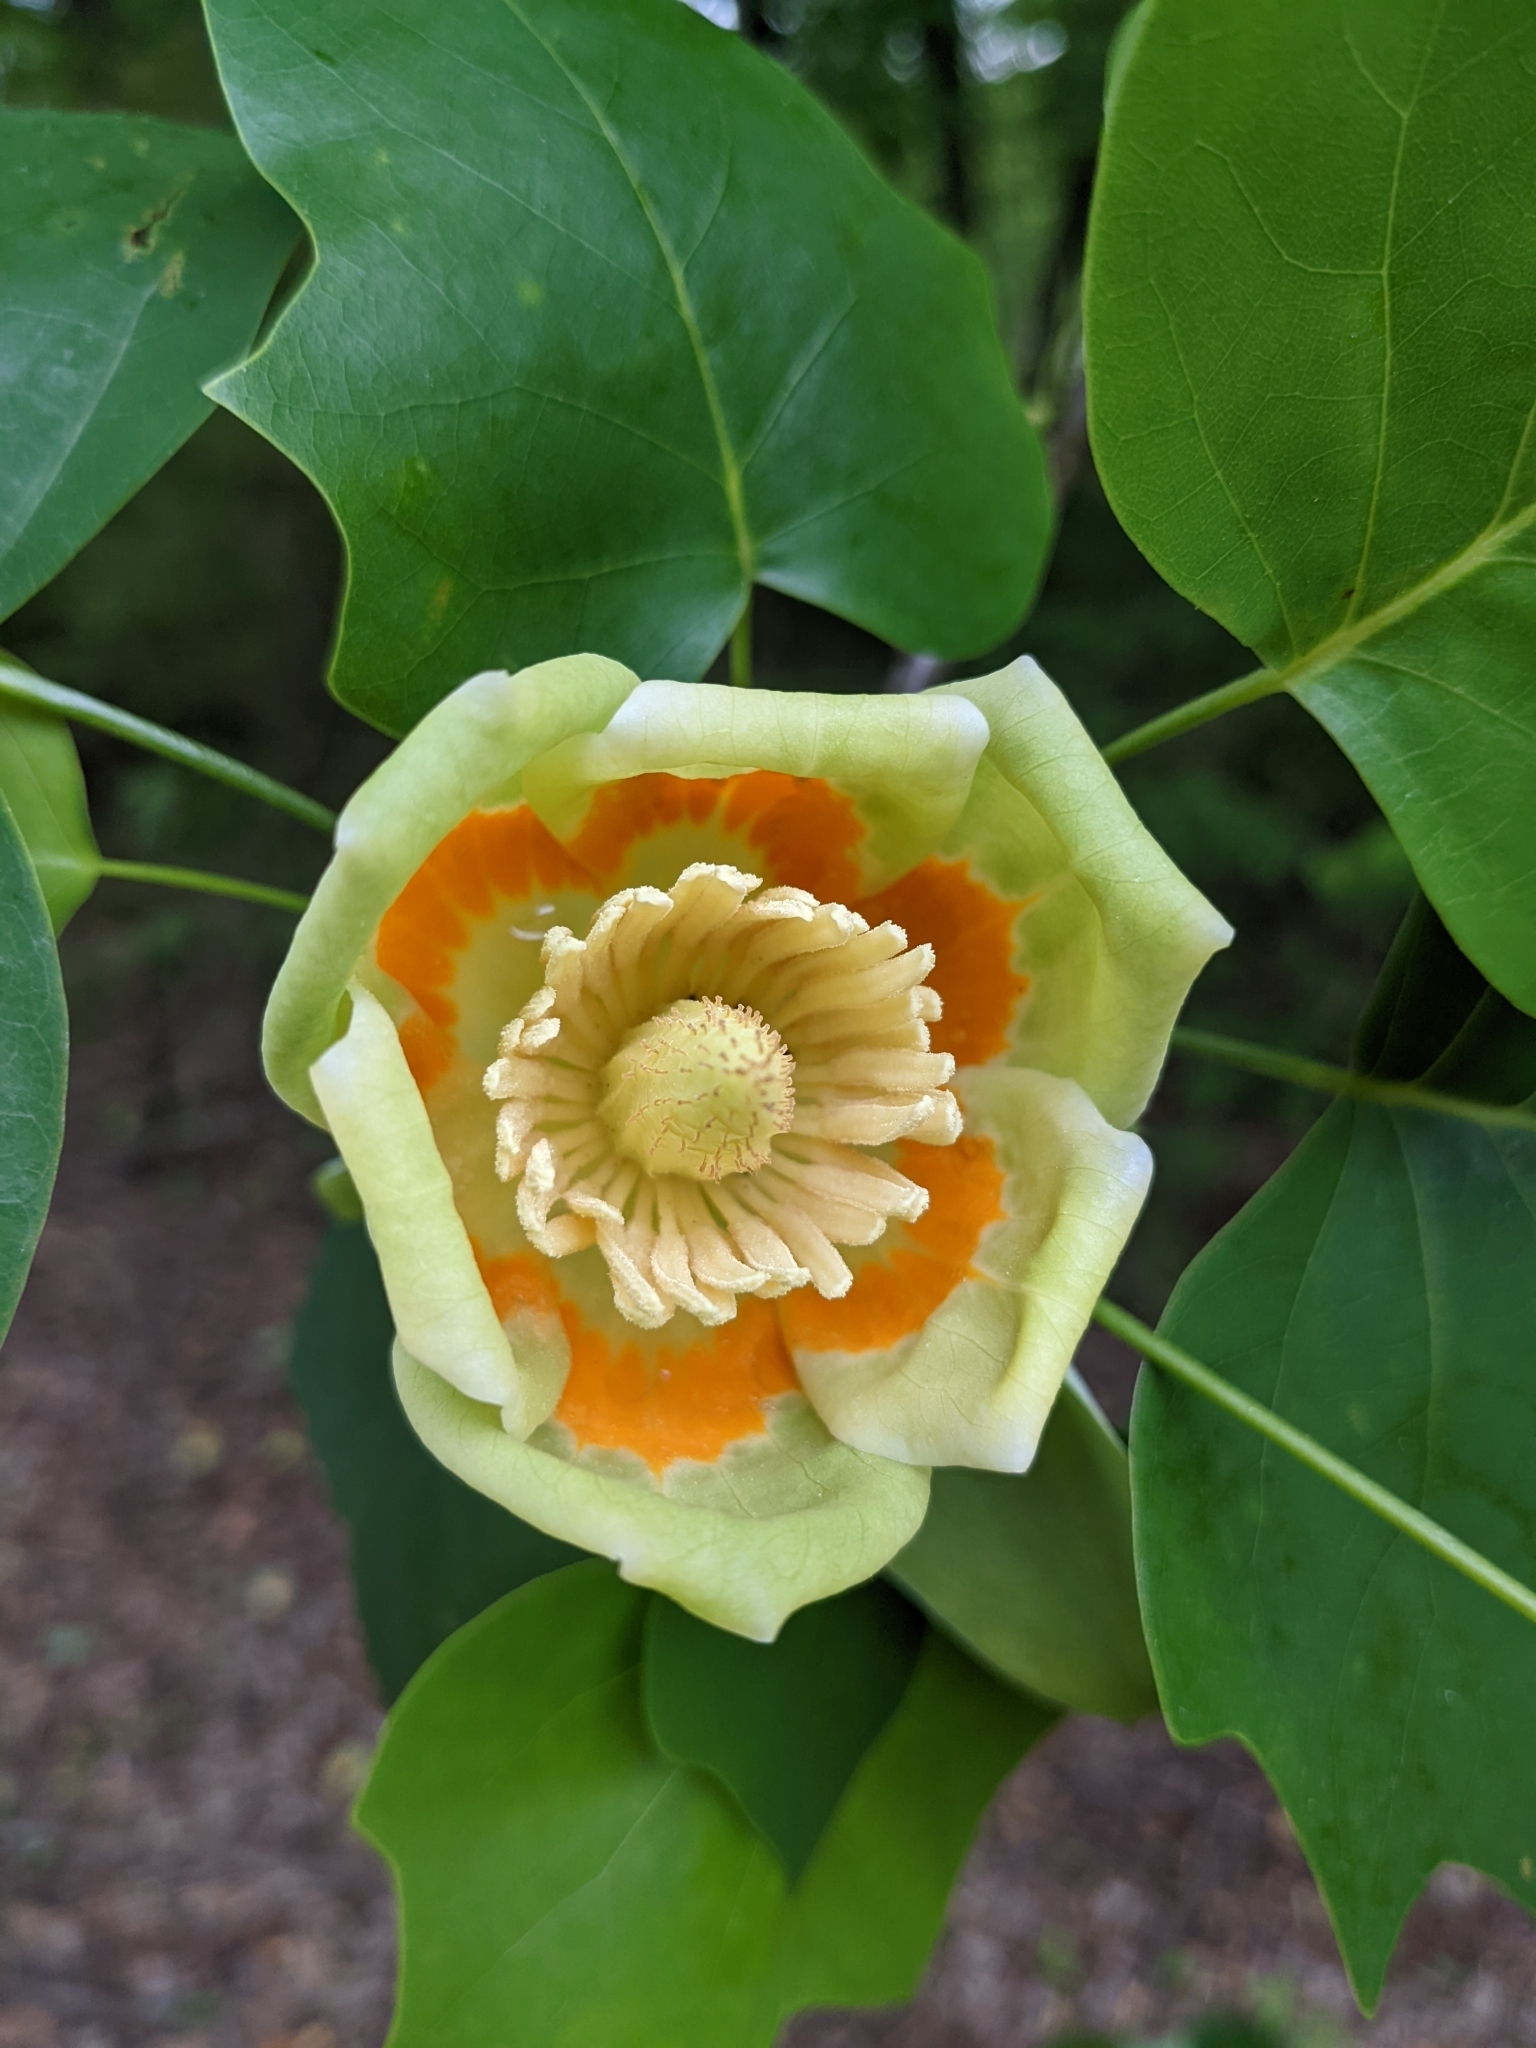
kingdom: Plantae
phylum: Tracheophyta
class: Magnoliopsida
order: Magnoliales
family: Magnoliaceae
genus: Liriodendron
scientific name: Liriodendron tulipifera
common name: Tulip tree
